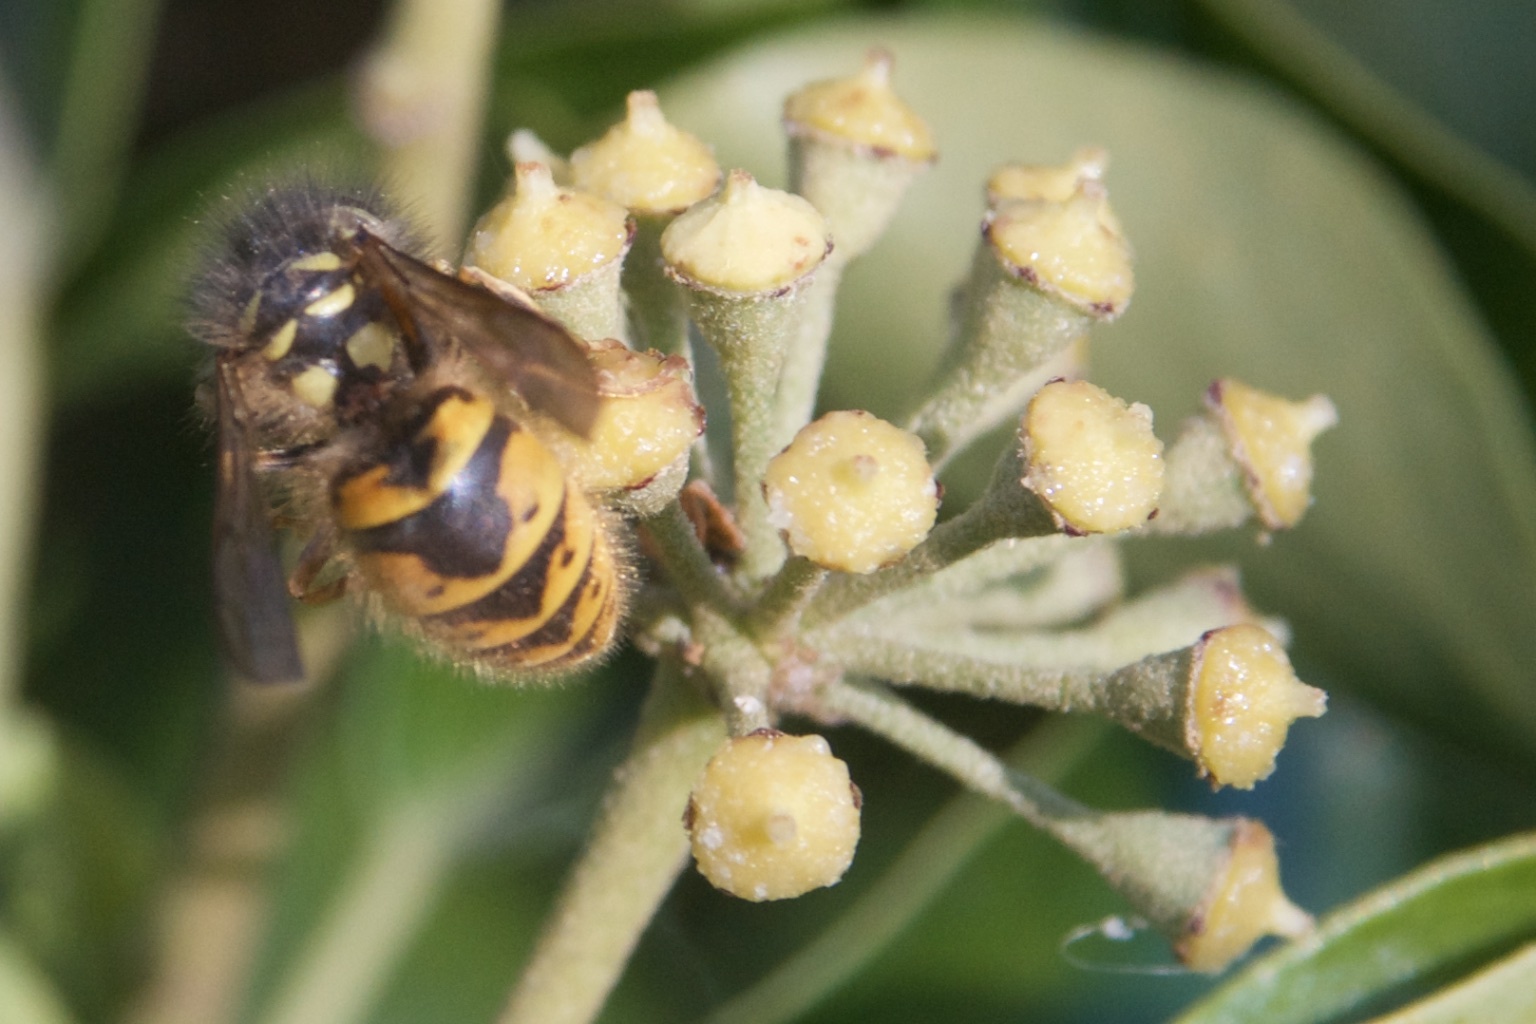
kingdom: Animalia
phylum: Arthropoda
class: Insecta
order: Hymenoptera
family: Vespidae
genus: Vespula
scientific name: Vespula vulgaris
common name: Common wasp
